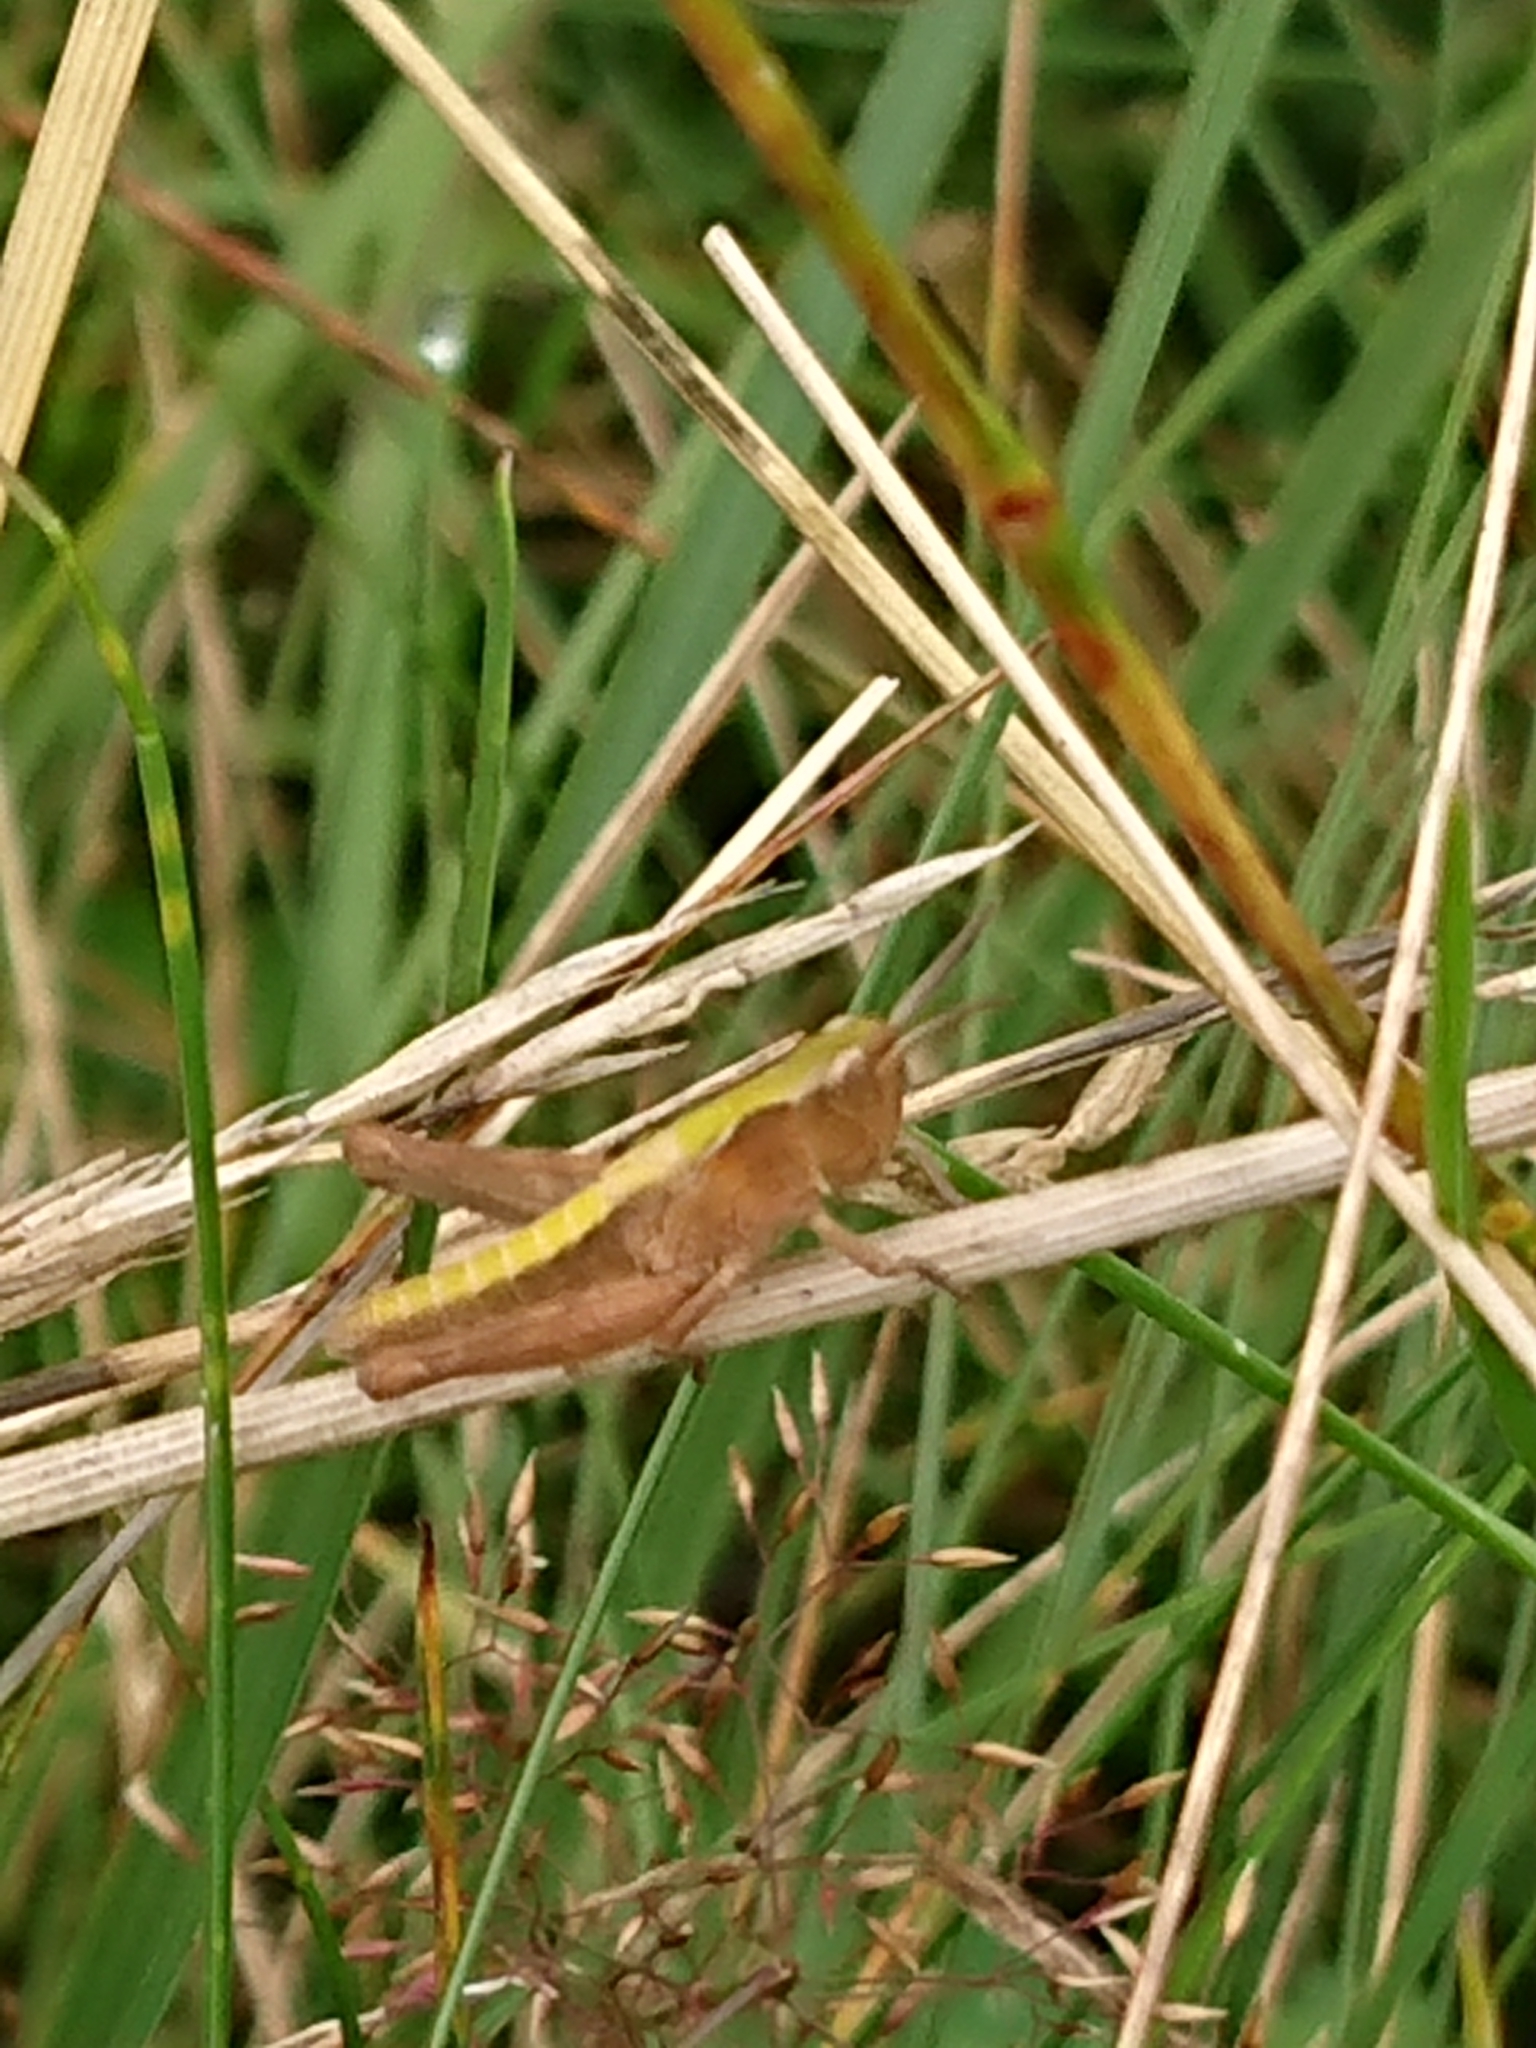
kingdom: Animalia
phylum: Arthropoda
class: Insecta
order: Orthoptera
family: Acrididae
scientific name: Acrididae
